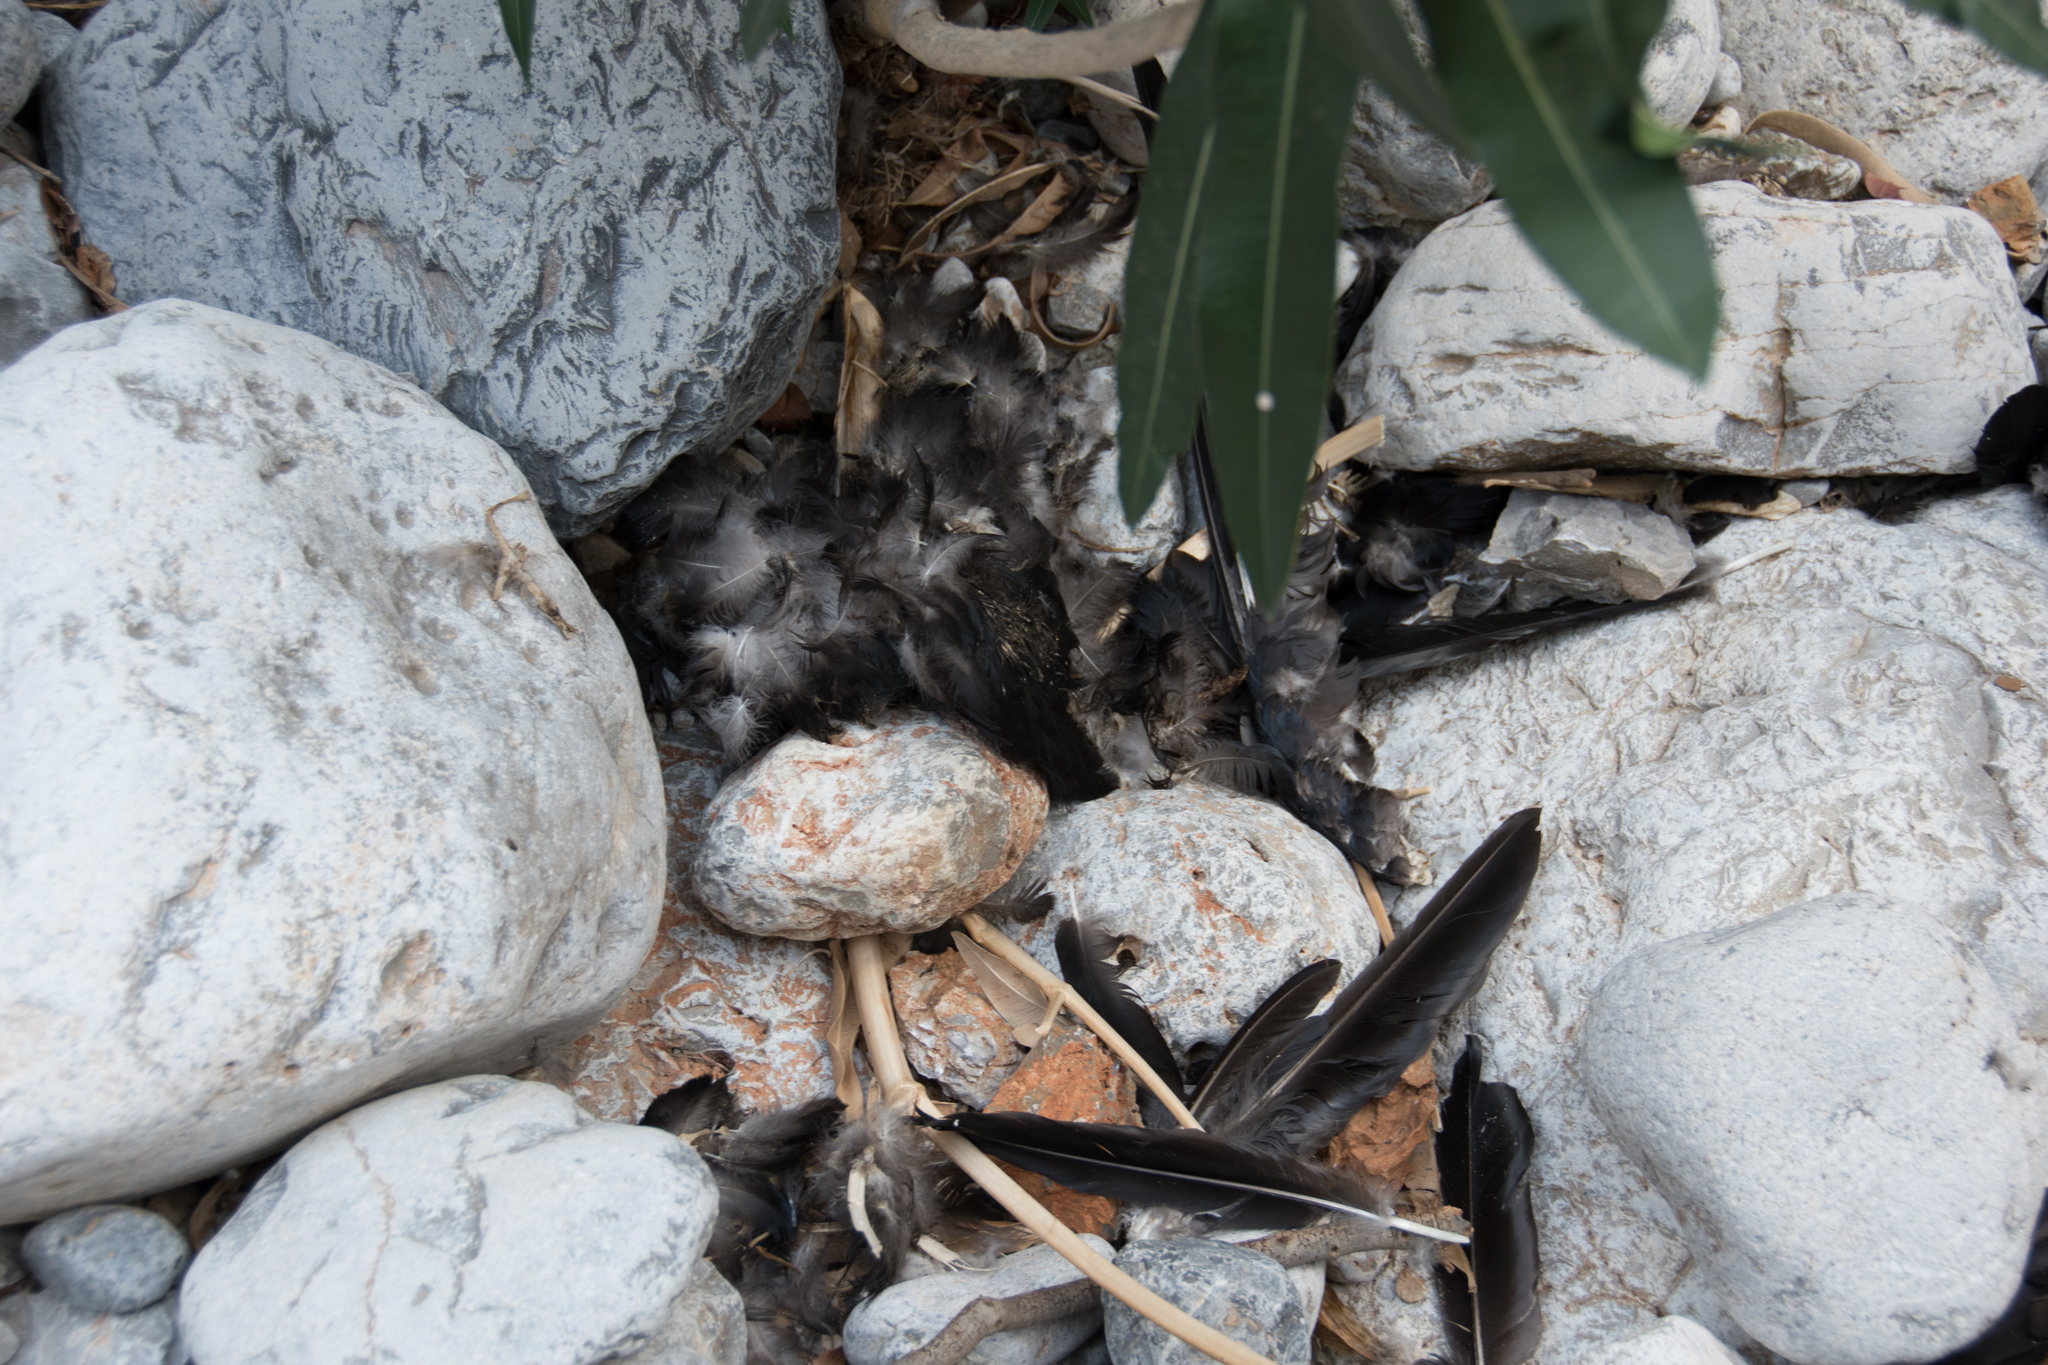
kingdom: Animalia
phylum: Chordata
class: Aves
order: Passeriformes
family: Corvidae
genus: Coloeus
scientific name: Coloeus monedula
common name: Western jackdaw
